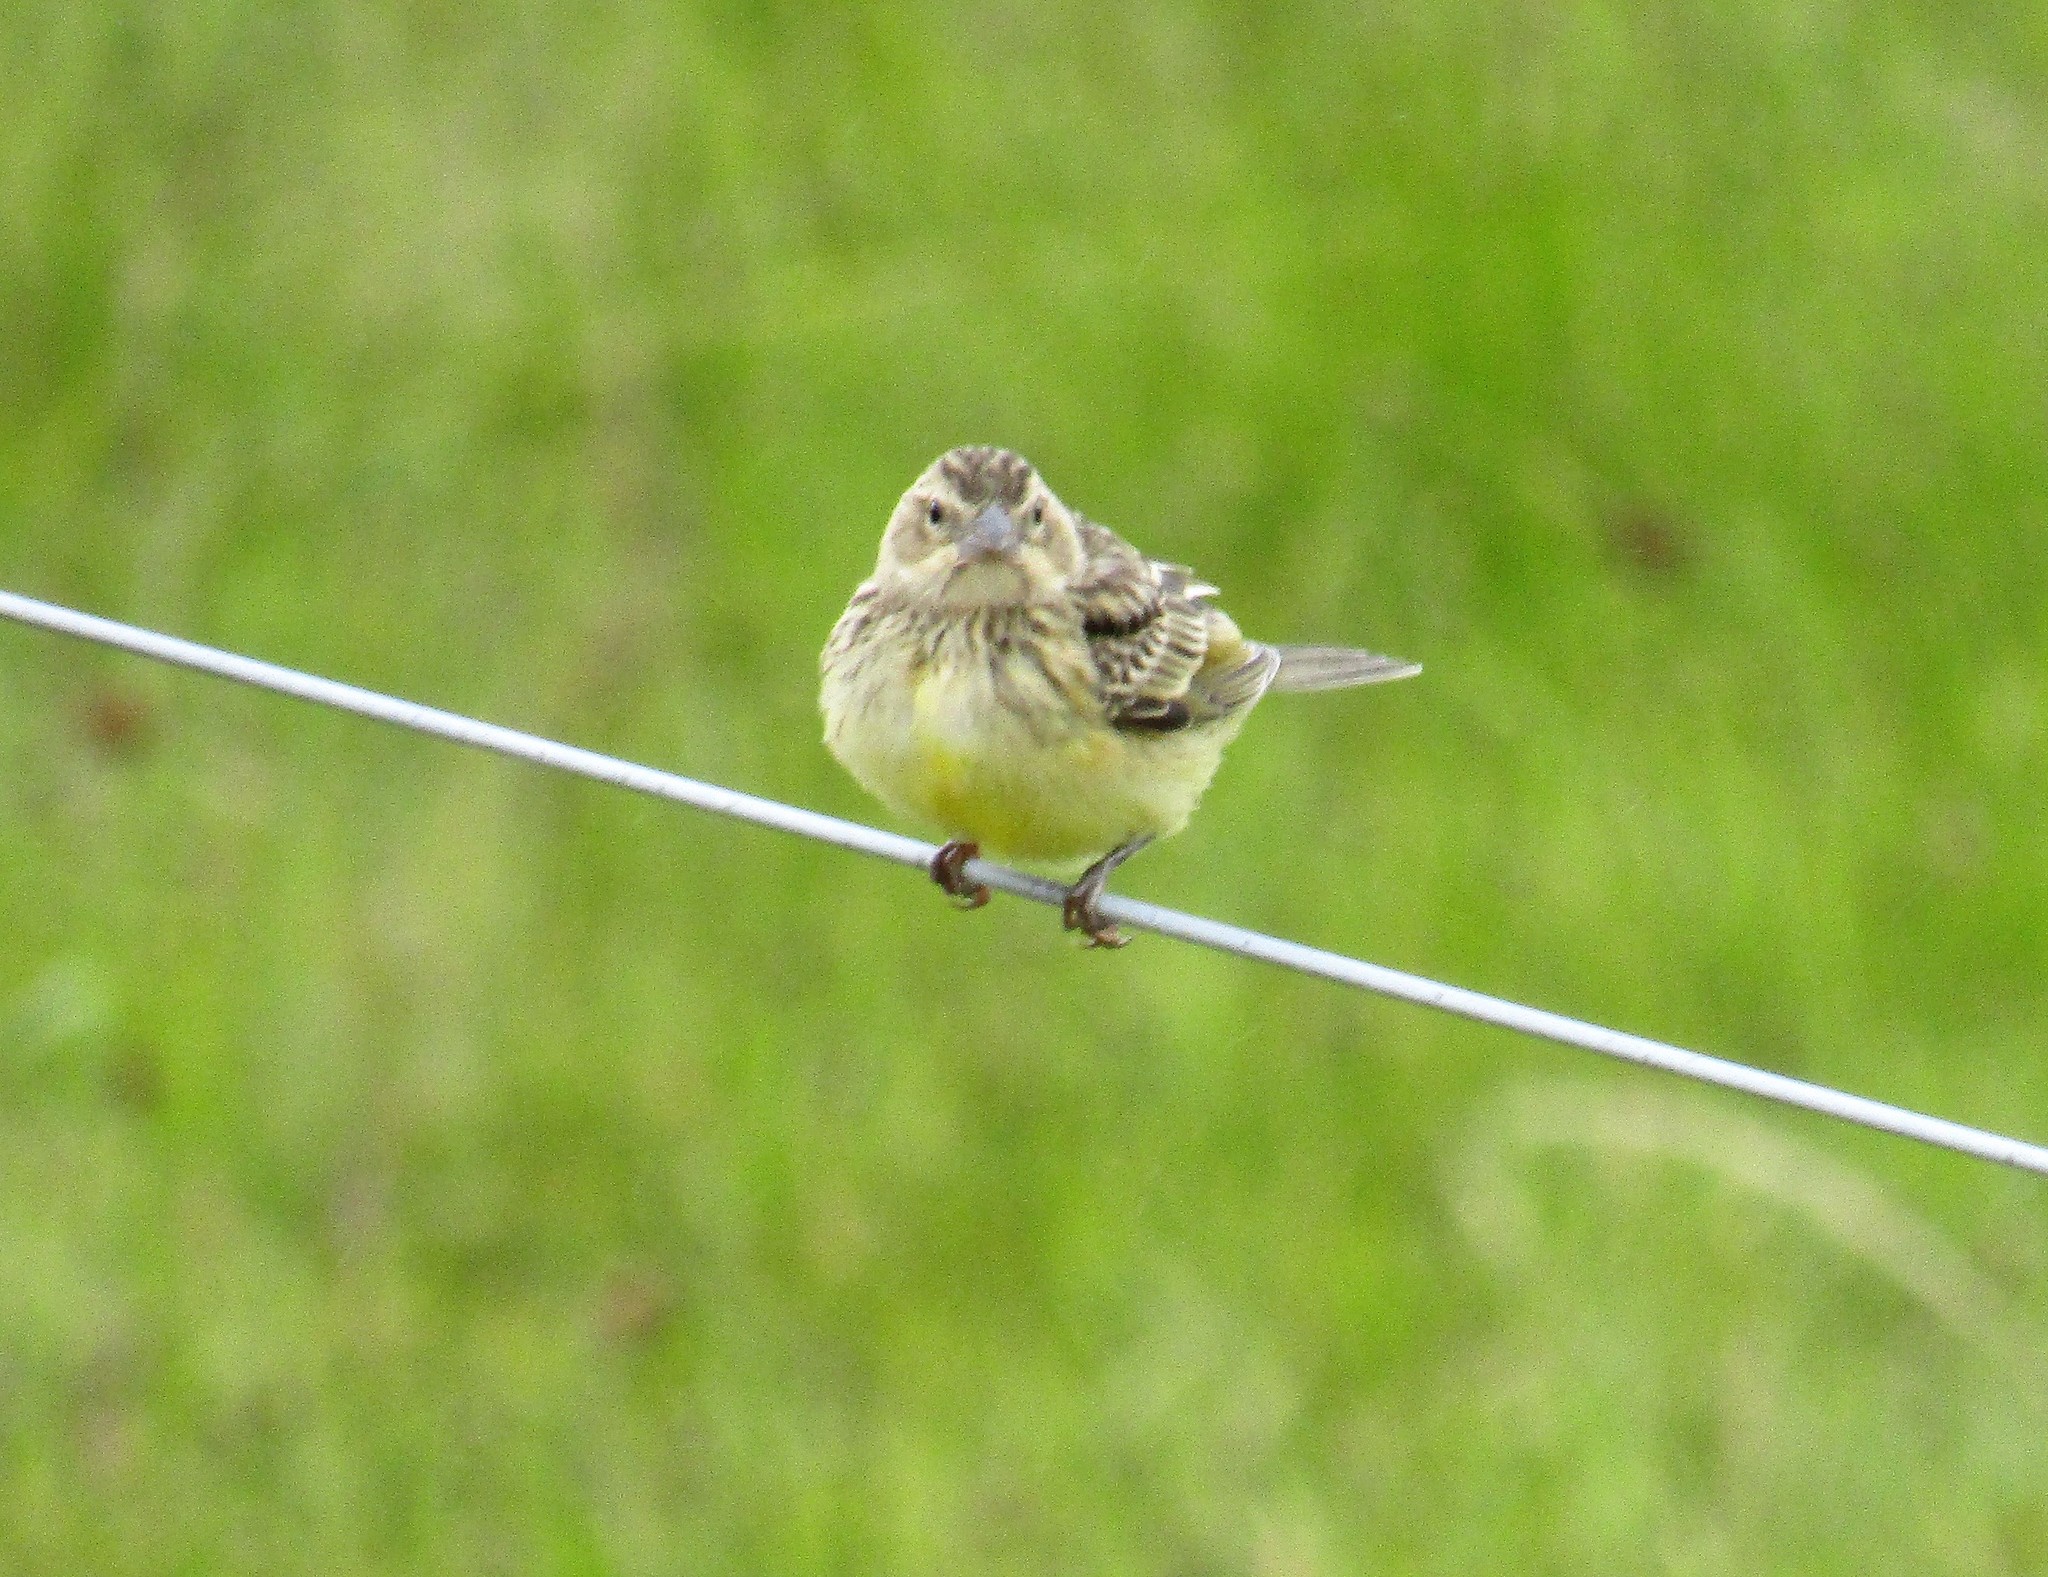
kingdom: Animalia
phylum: Chordata
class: Aves
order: Passeriformes
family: Thraupidae
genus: Sicalis
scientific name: Sicalis luteola
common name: Grassland yellow-finch
